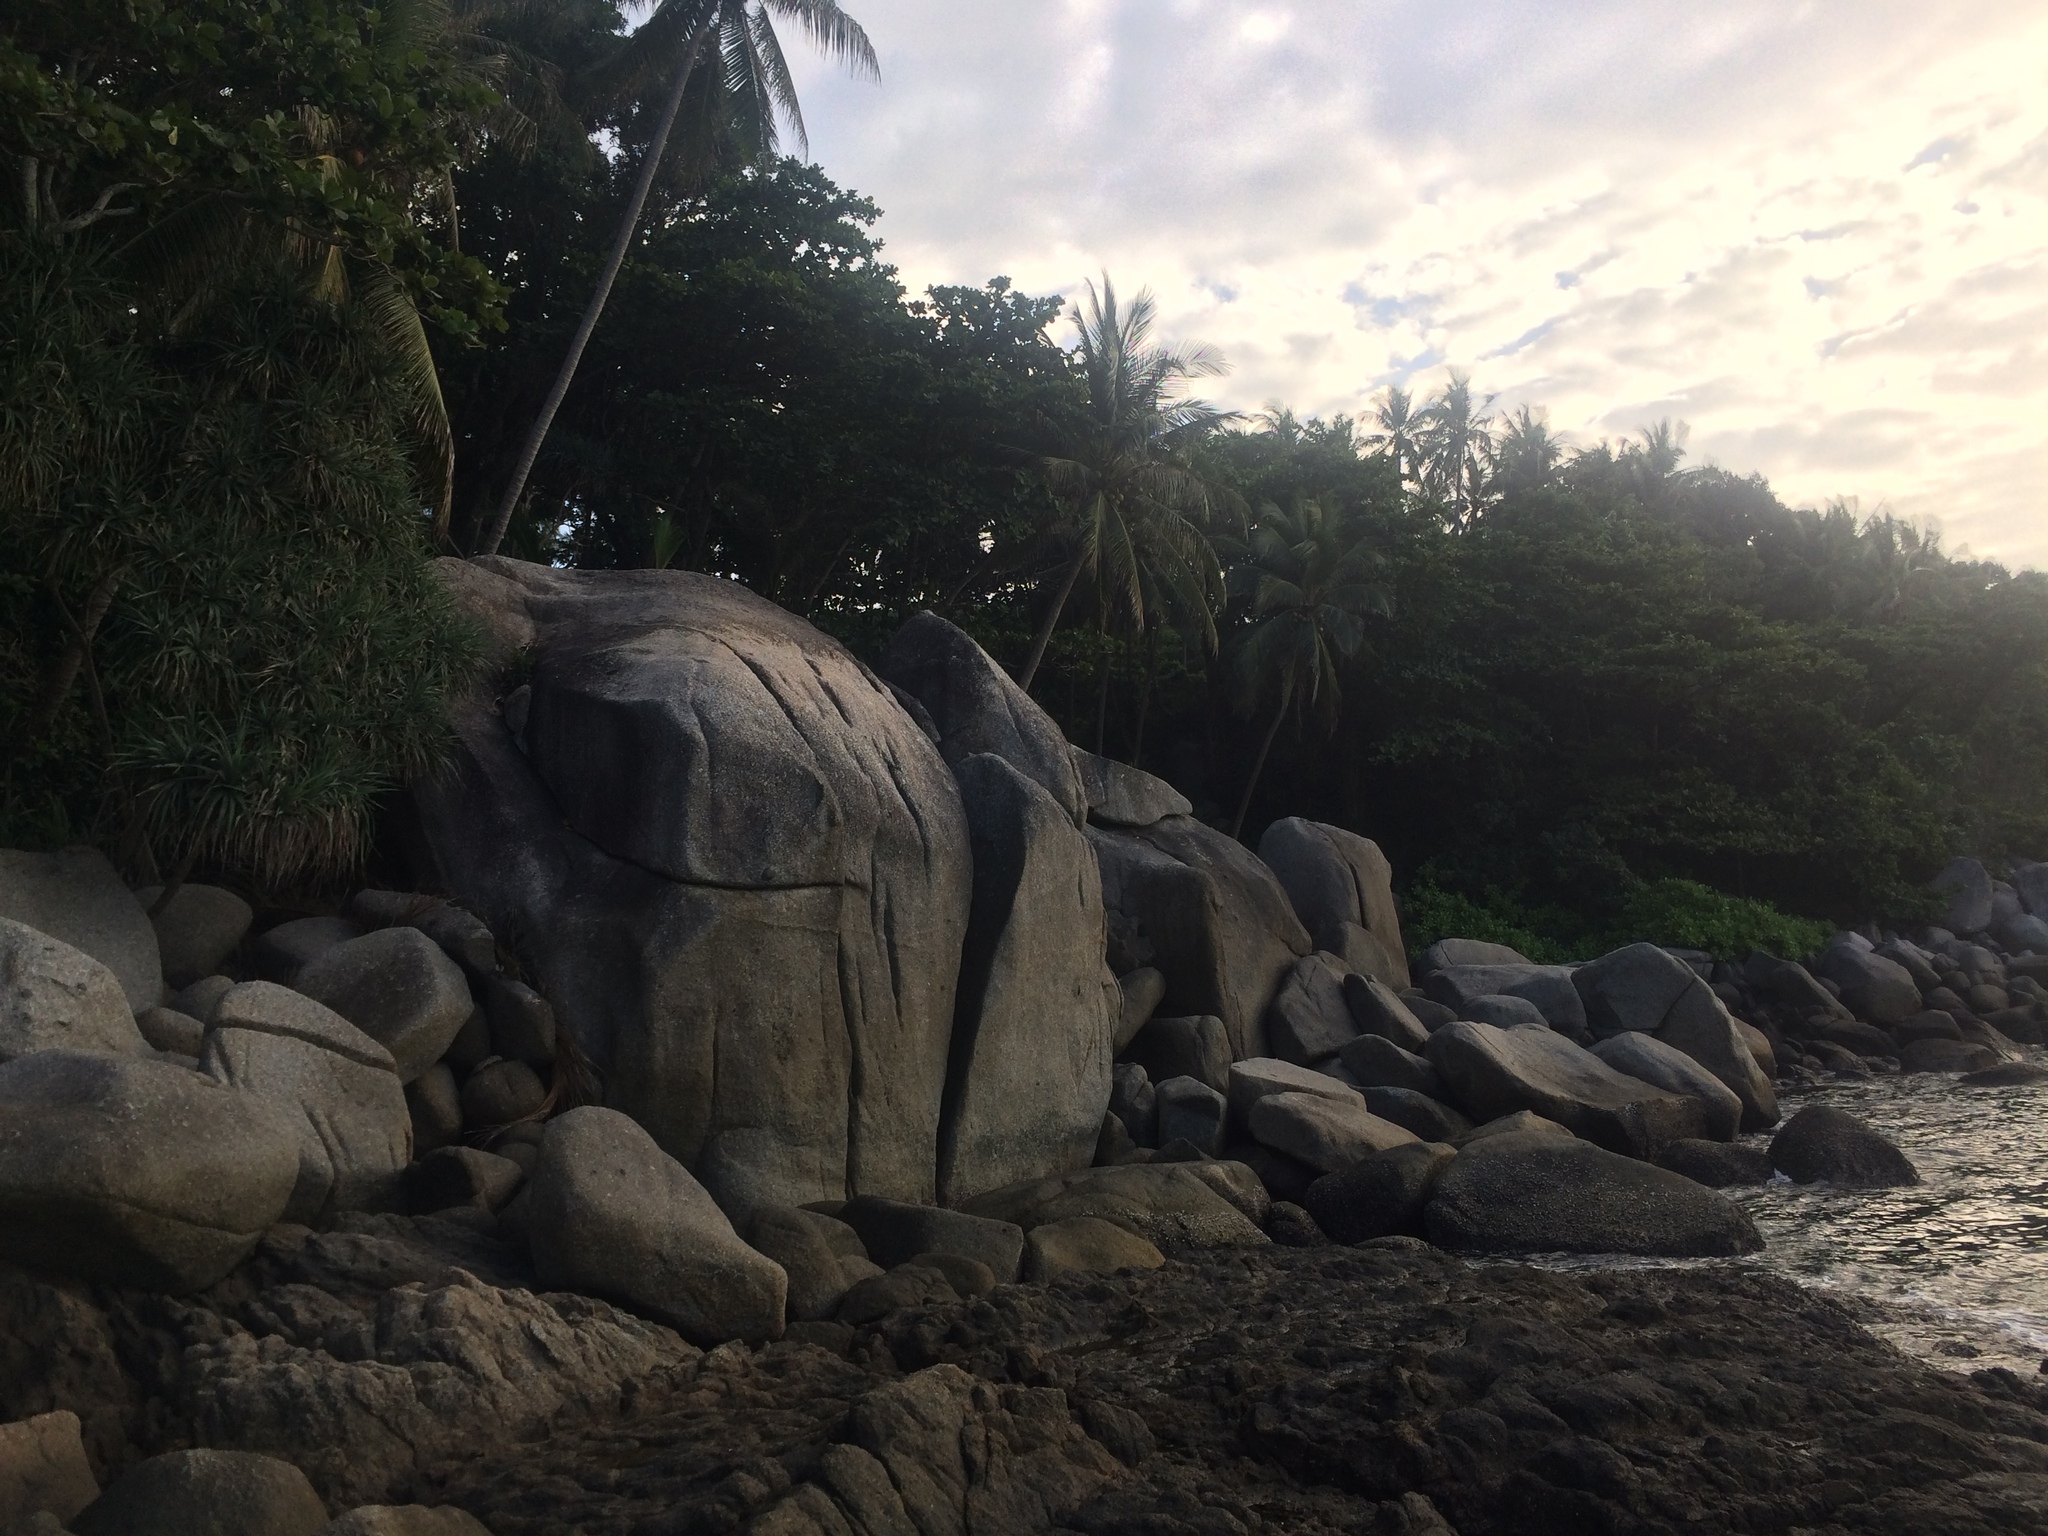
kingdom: Plantae
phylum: Tracheophyta
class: Liliopsida
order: Arecales
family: Arecaceae
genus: Cocos
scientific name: Cocos nucifera
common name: Coconut palm
